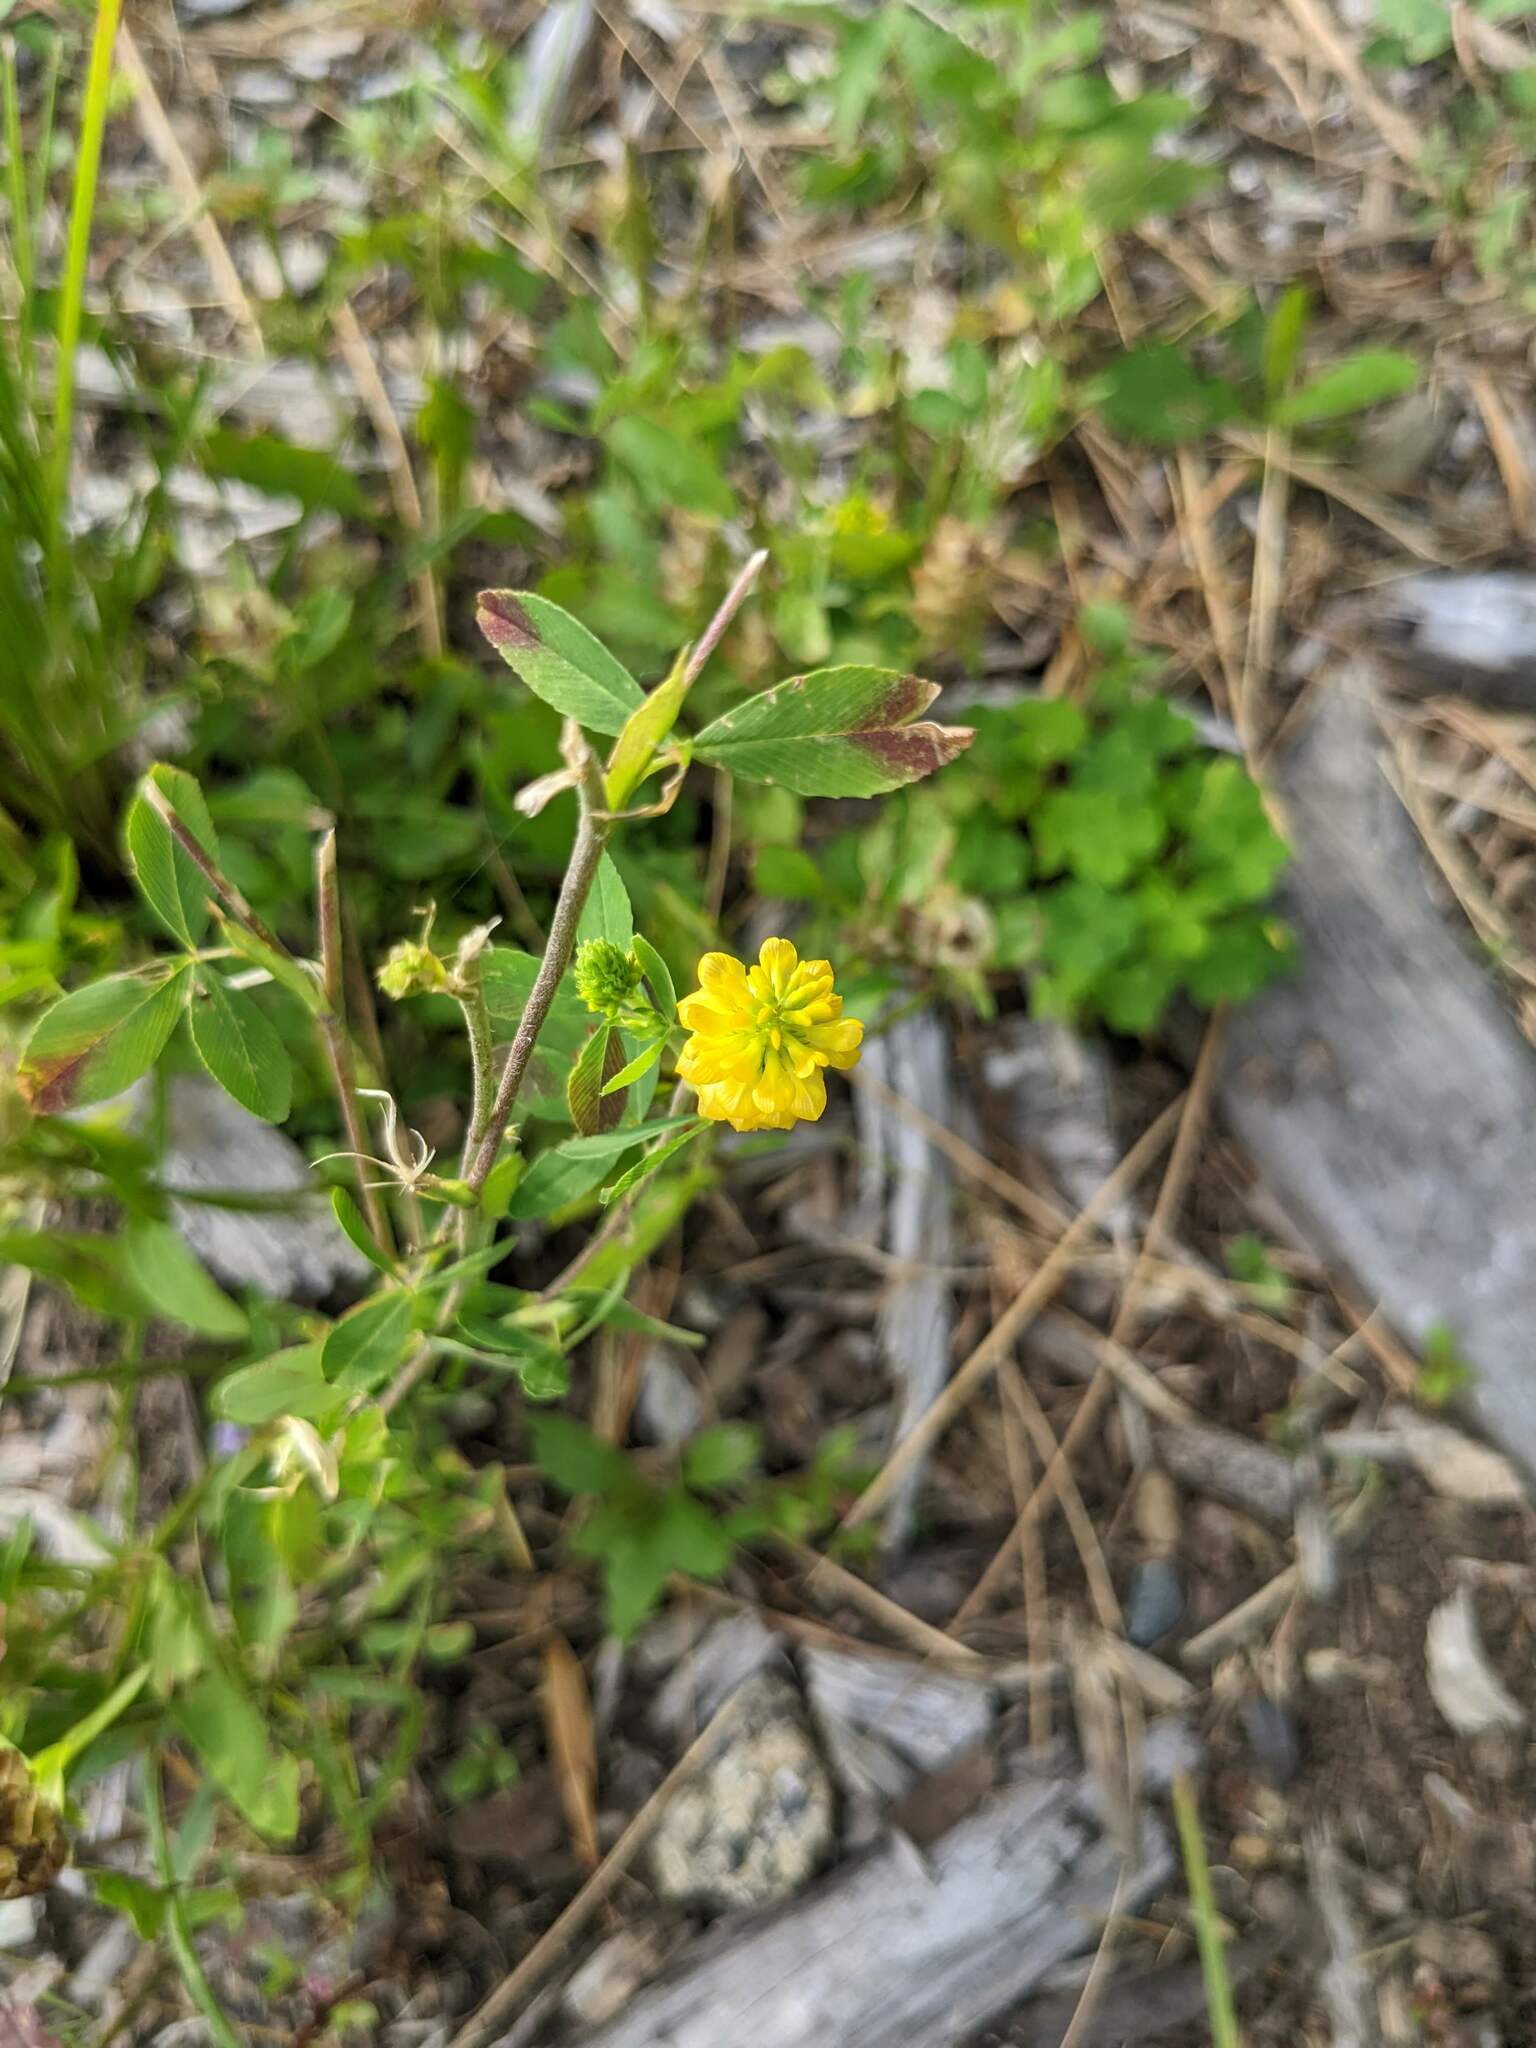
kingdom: Plantae
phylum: Tracheophyta
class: Magnoliopsida
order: Fabales
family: Fabaceae
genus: Trifolium
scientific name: Trifolium aureum
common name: Golden clover
